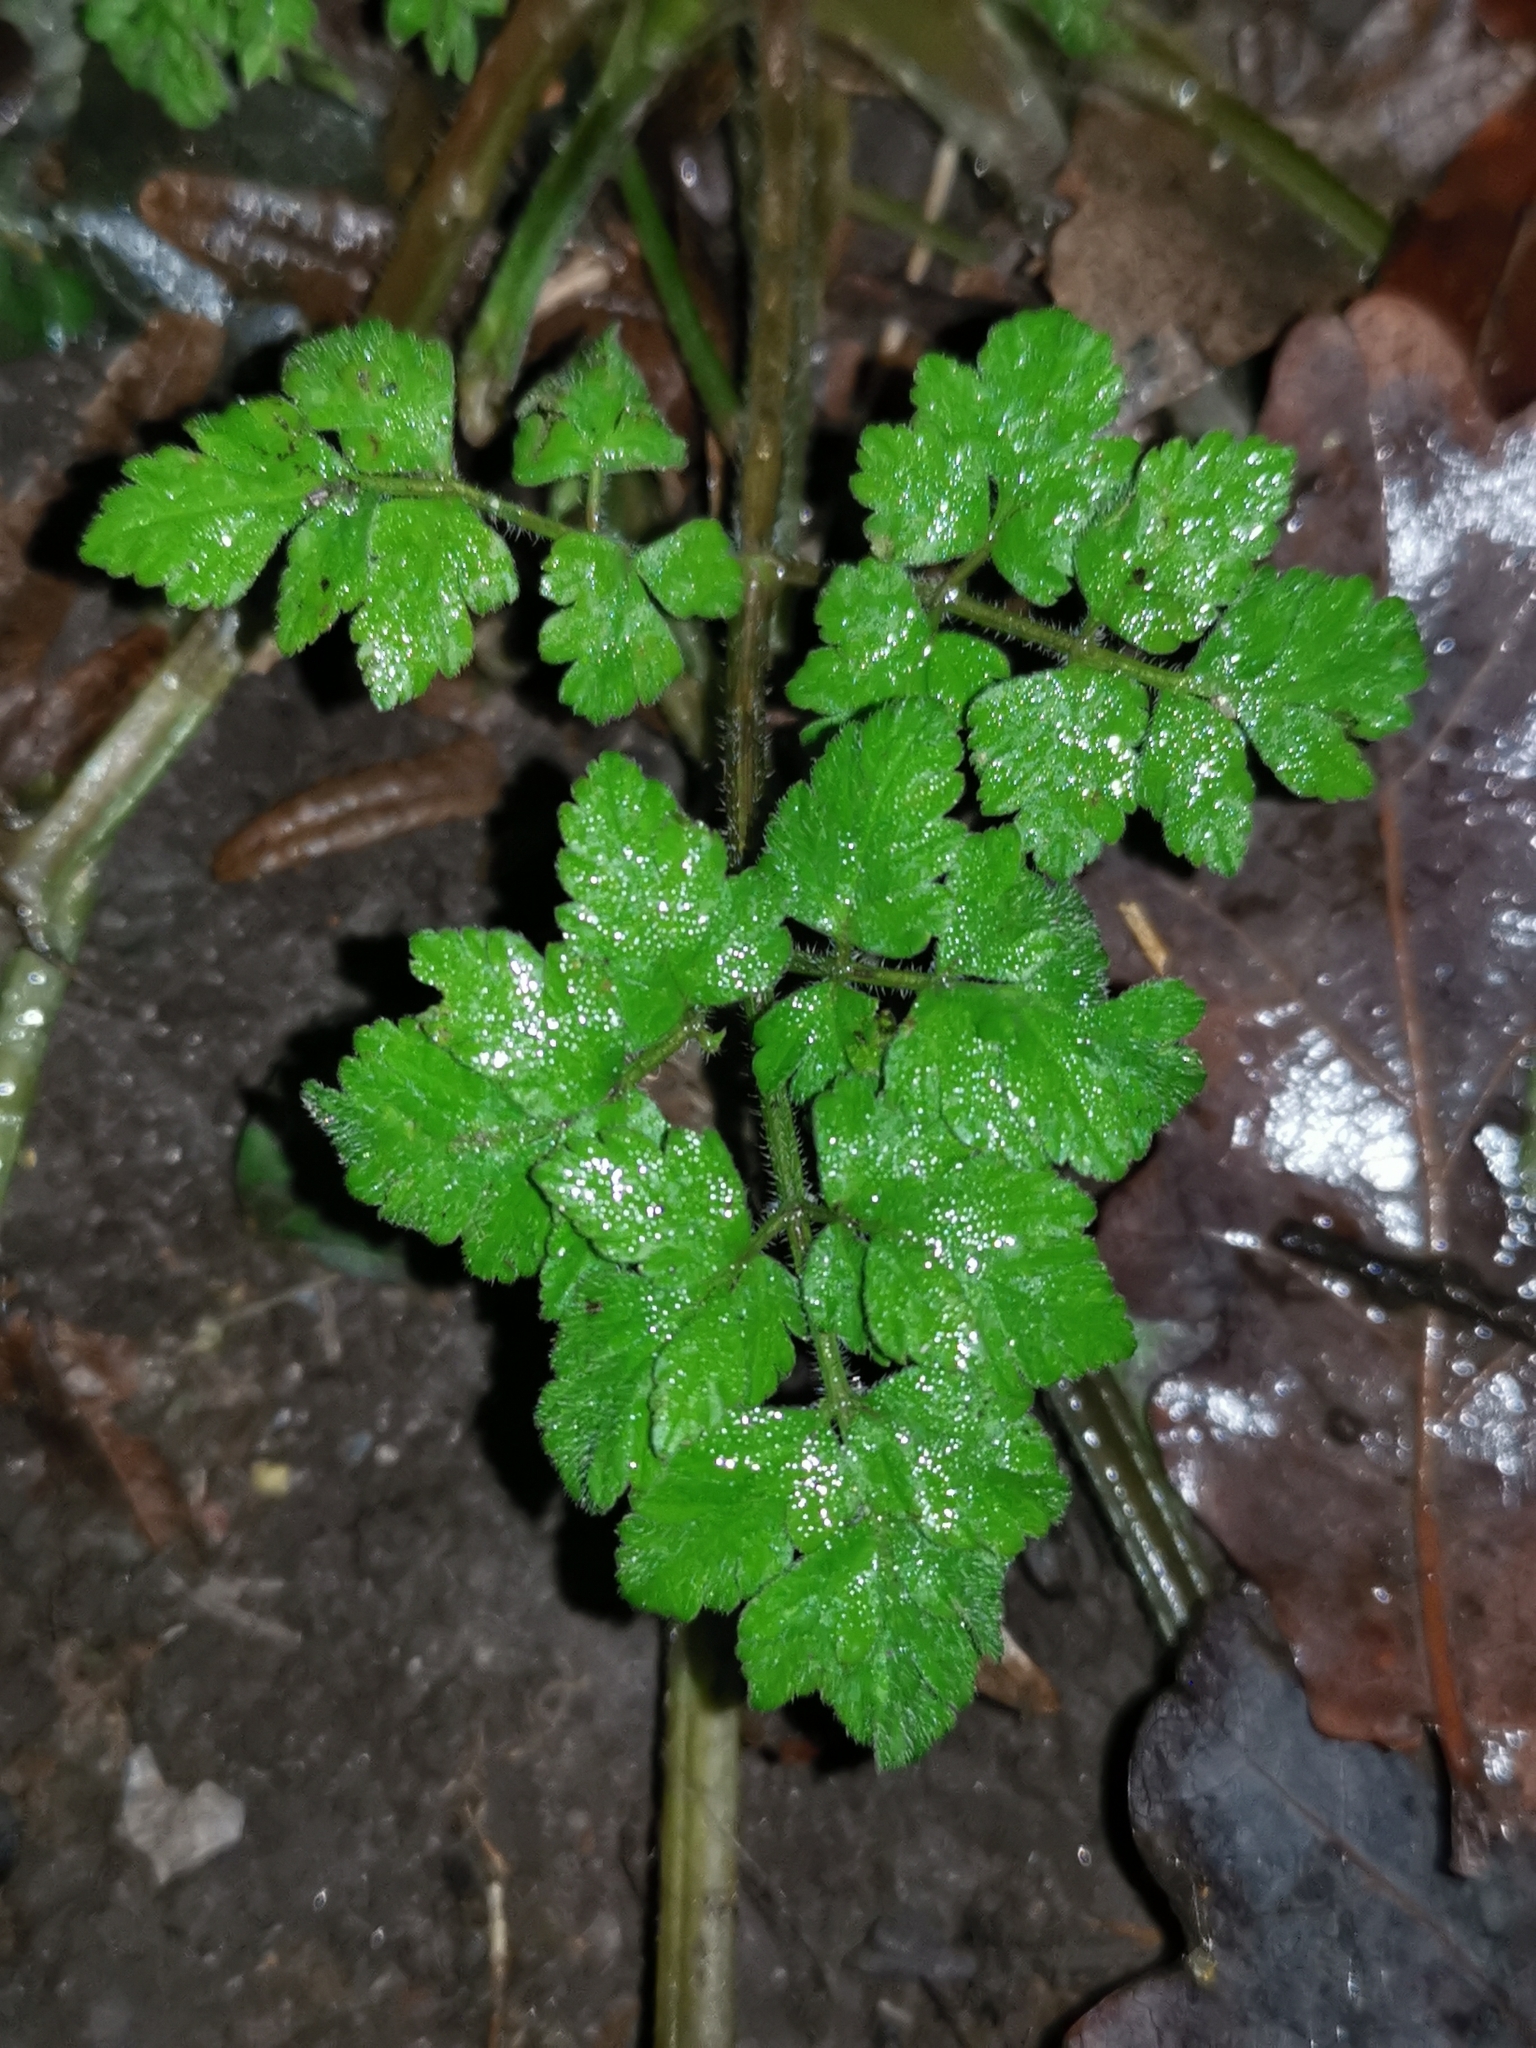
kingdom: Plantae
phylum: Tracheophyta
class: Magnoliopsida
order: Apiales
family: Apiaceae
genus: Chaerophyllum
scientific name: Chaerophyllum temulum
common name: Rough chervil
